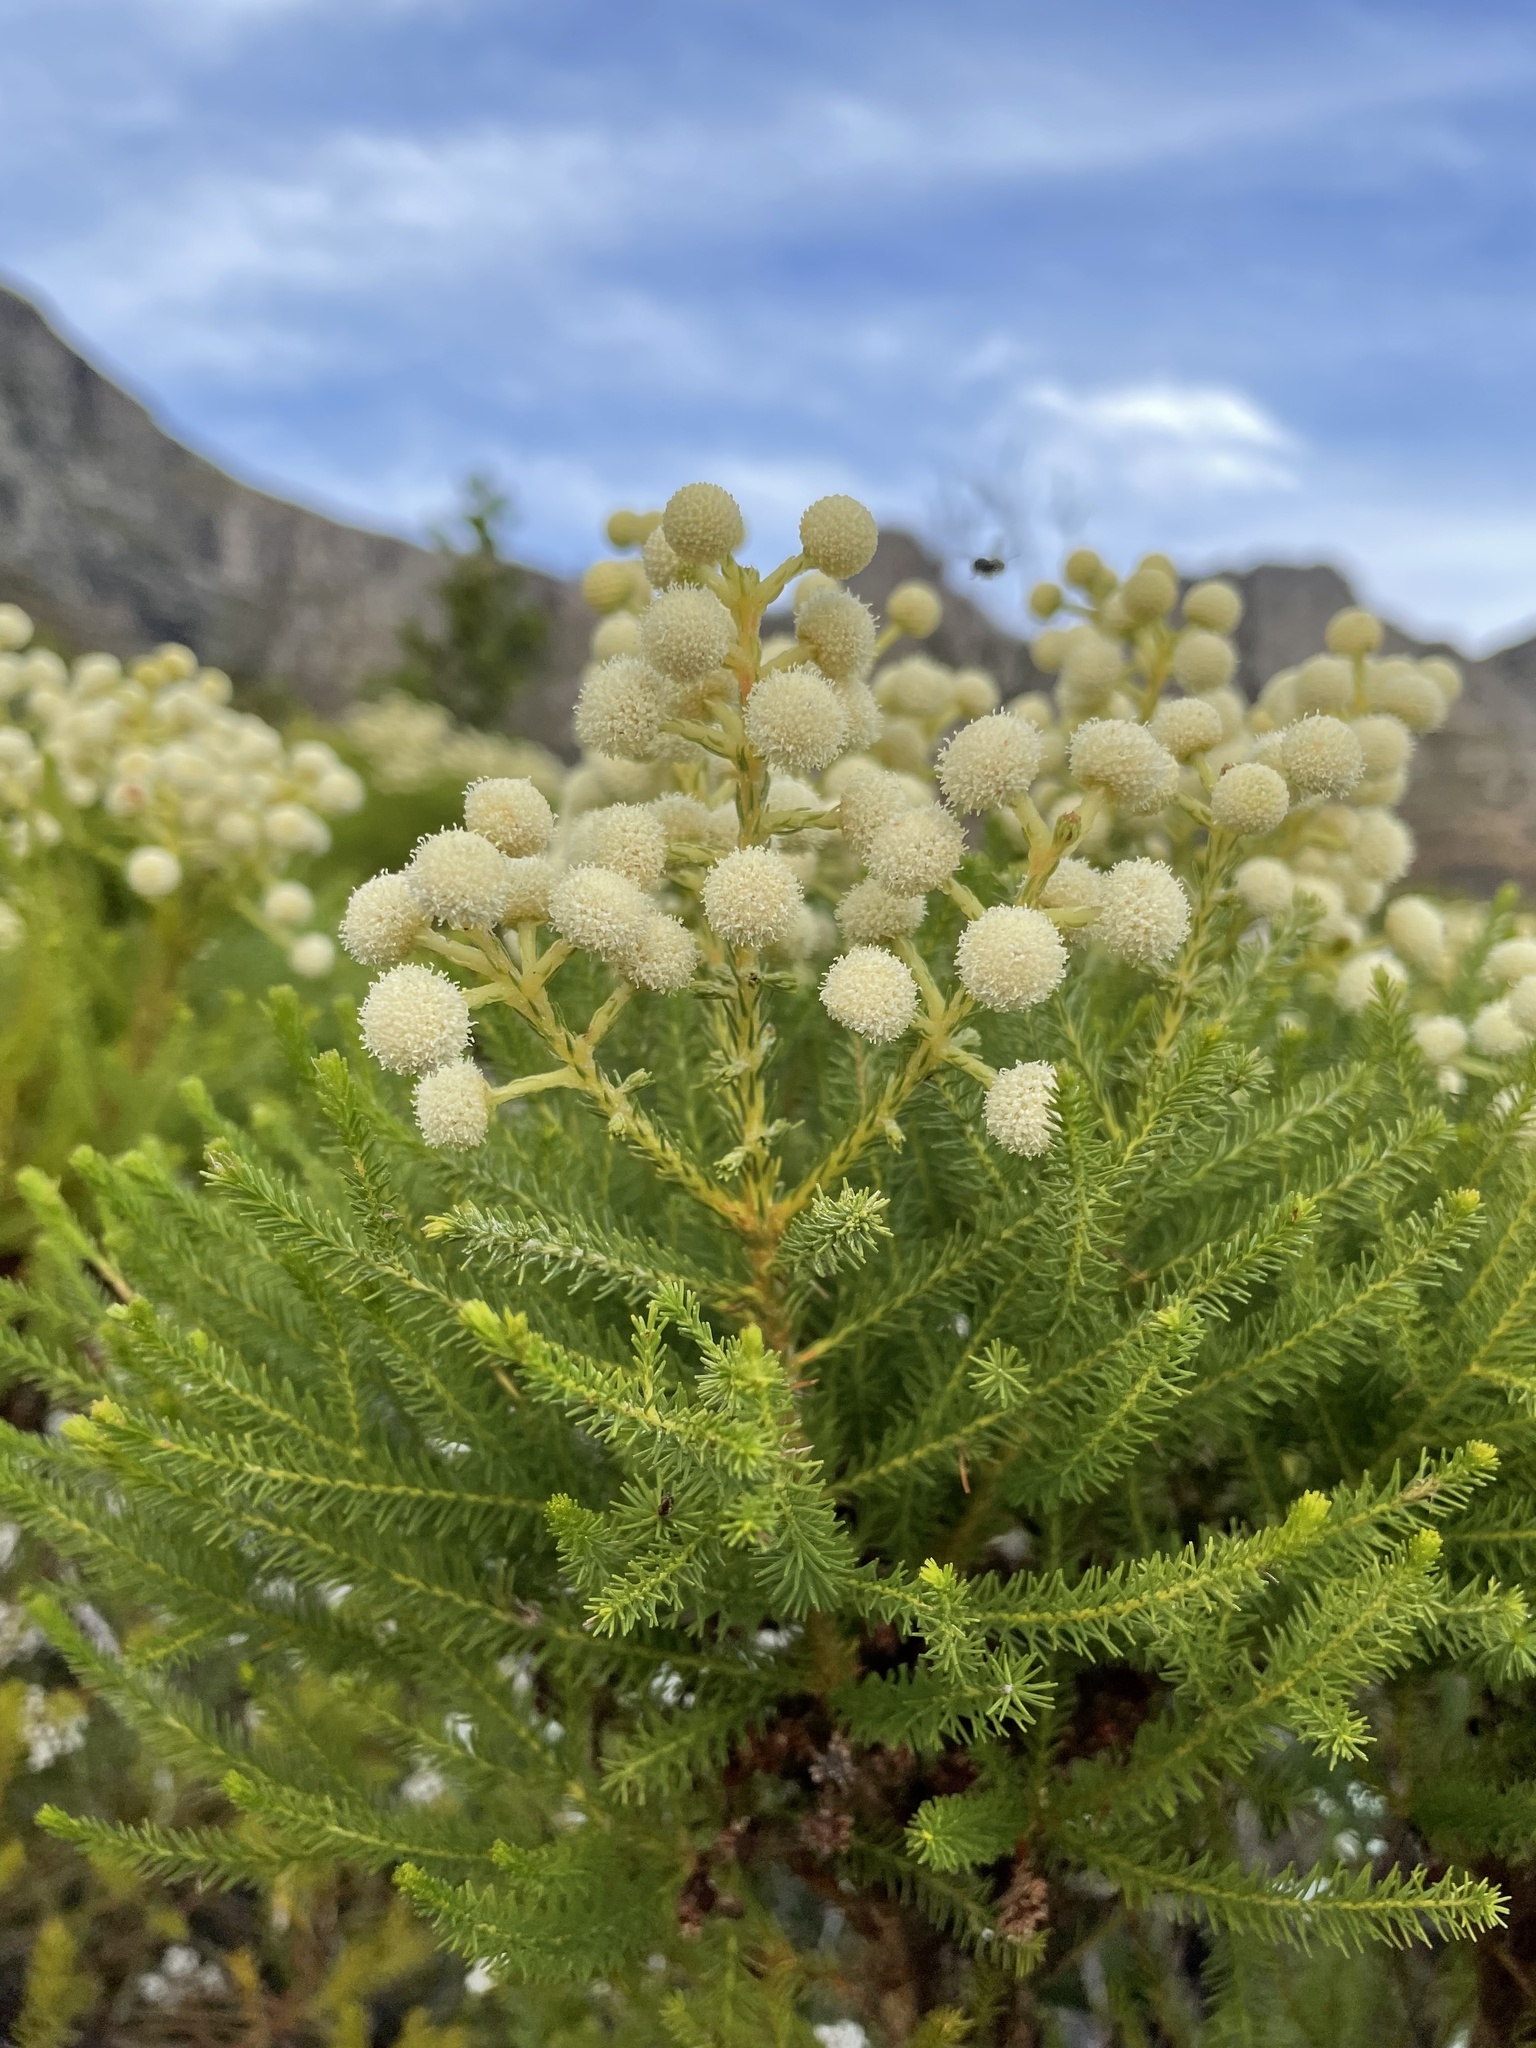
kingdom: Plantae
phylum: Tracheophyta
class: Magnoliopsida
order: Bruniales
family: Bruniaceae
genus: Berzelia
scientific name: Berzelia lanuginosa
